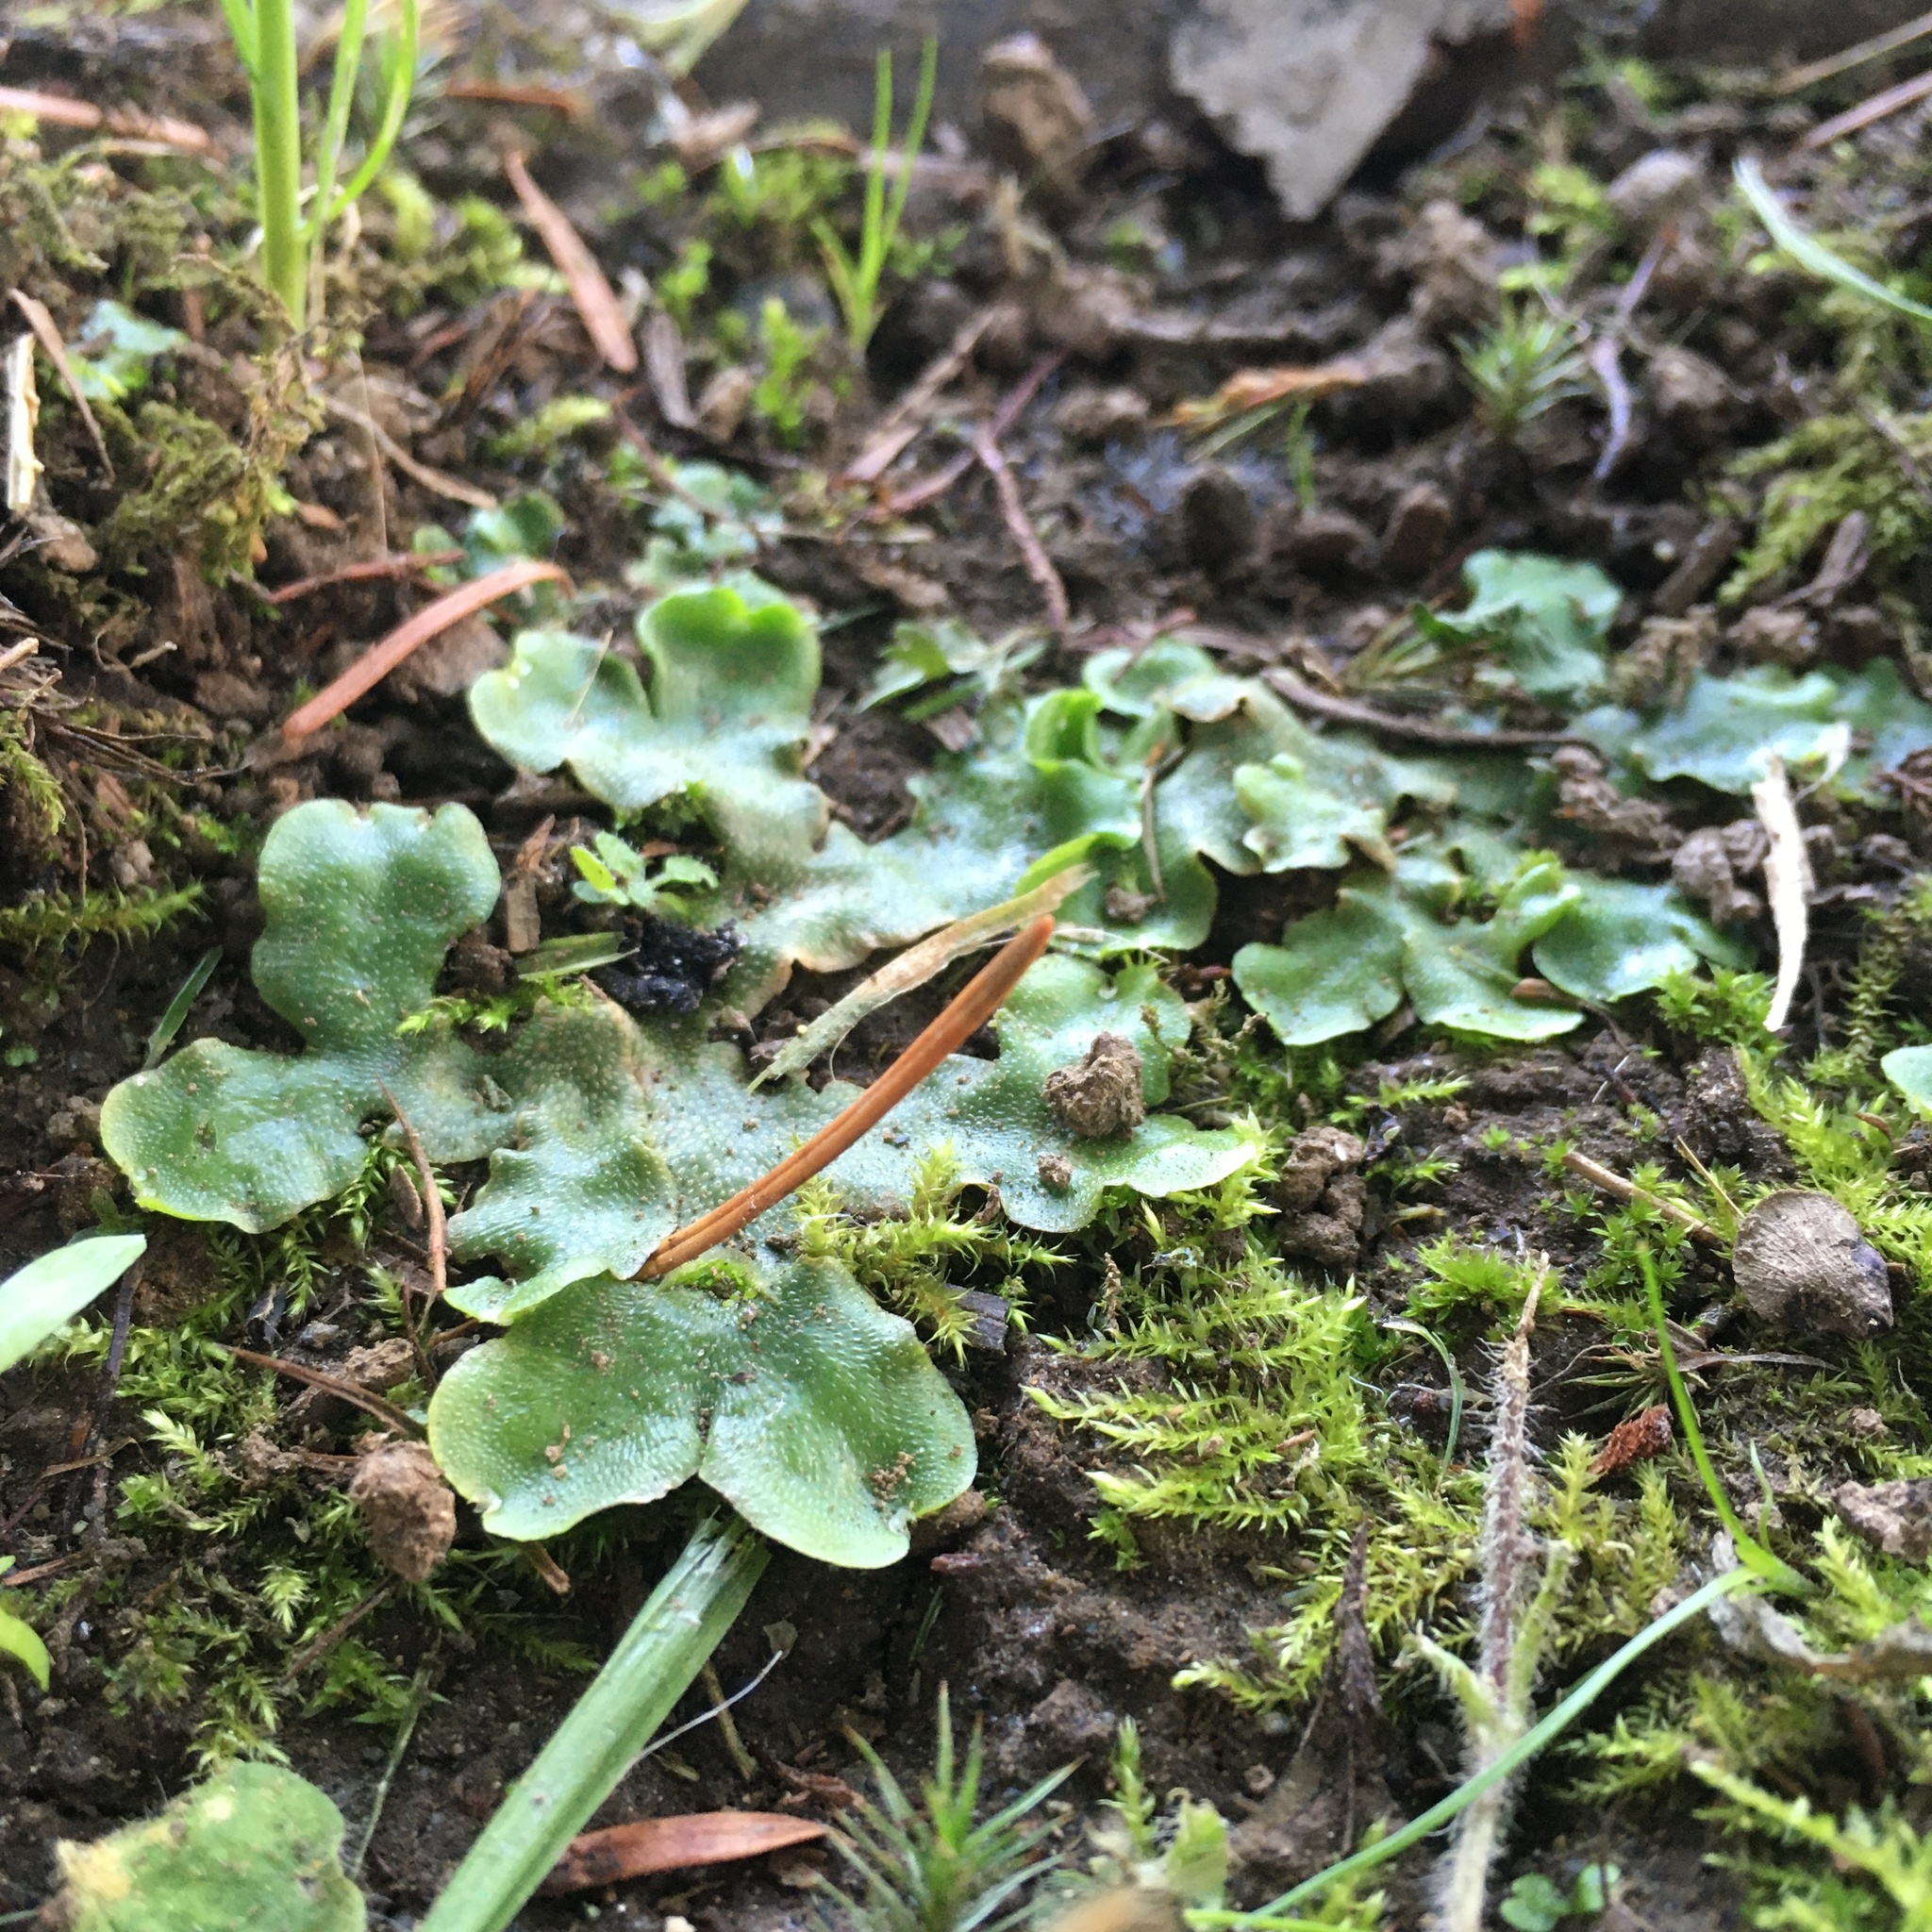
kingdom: Plantae
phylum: Marchantiophyta
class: Marchantiopsida
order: Lunulariales
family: Lunulariaceae
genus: Lunularia
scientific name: Lunularia cruciata
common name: Crescent-cup liverwort
